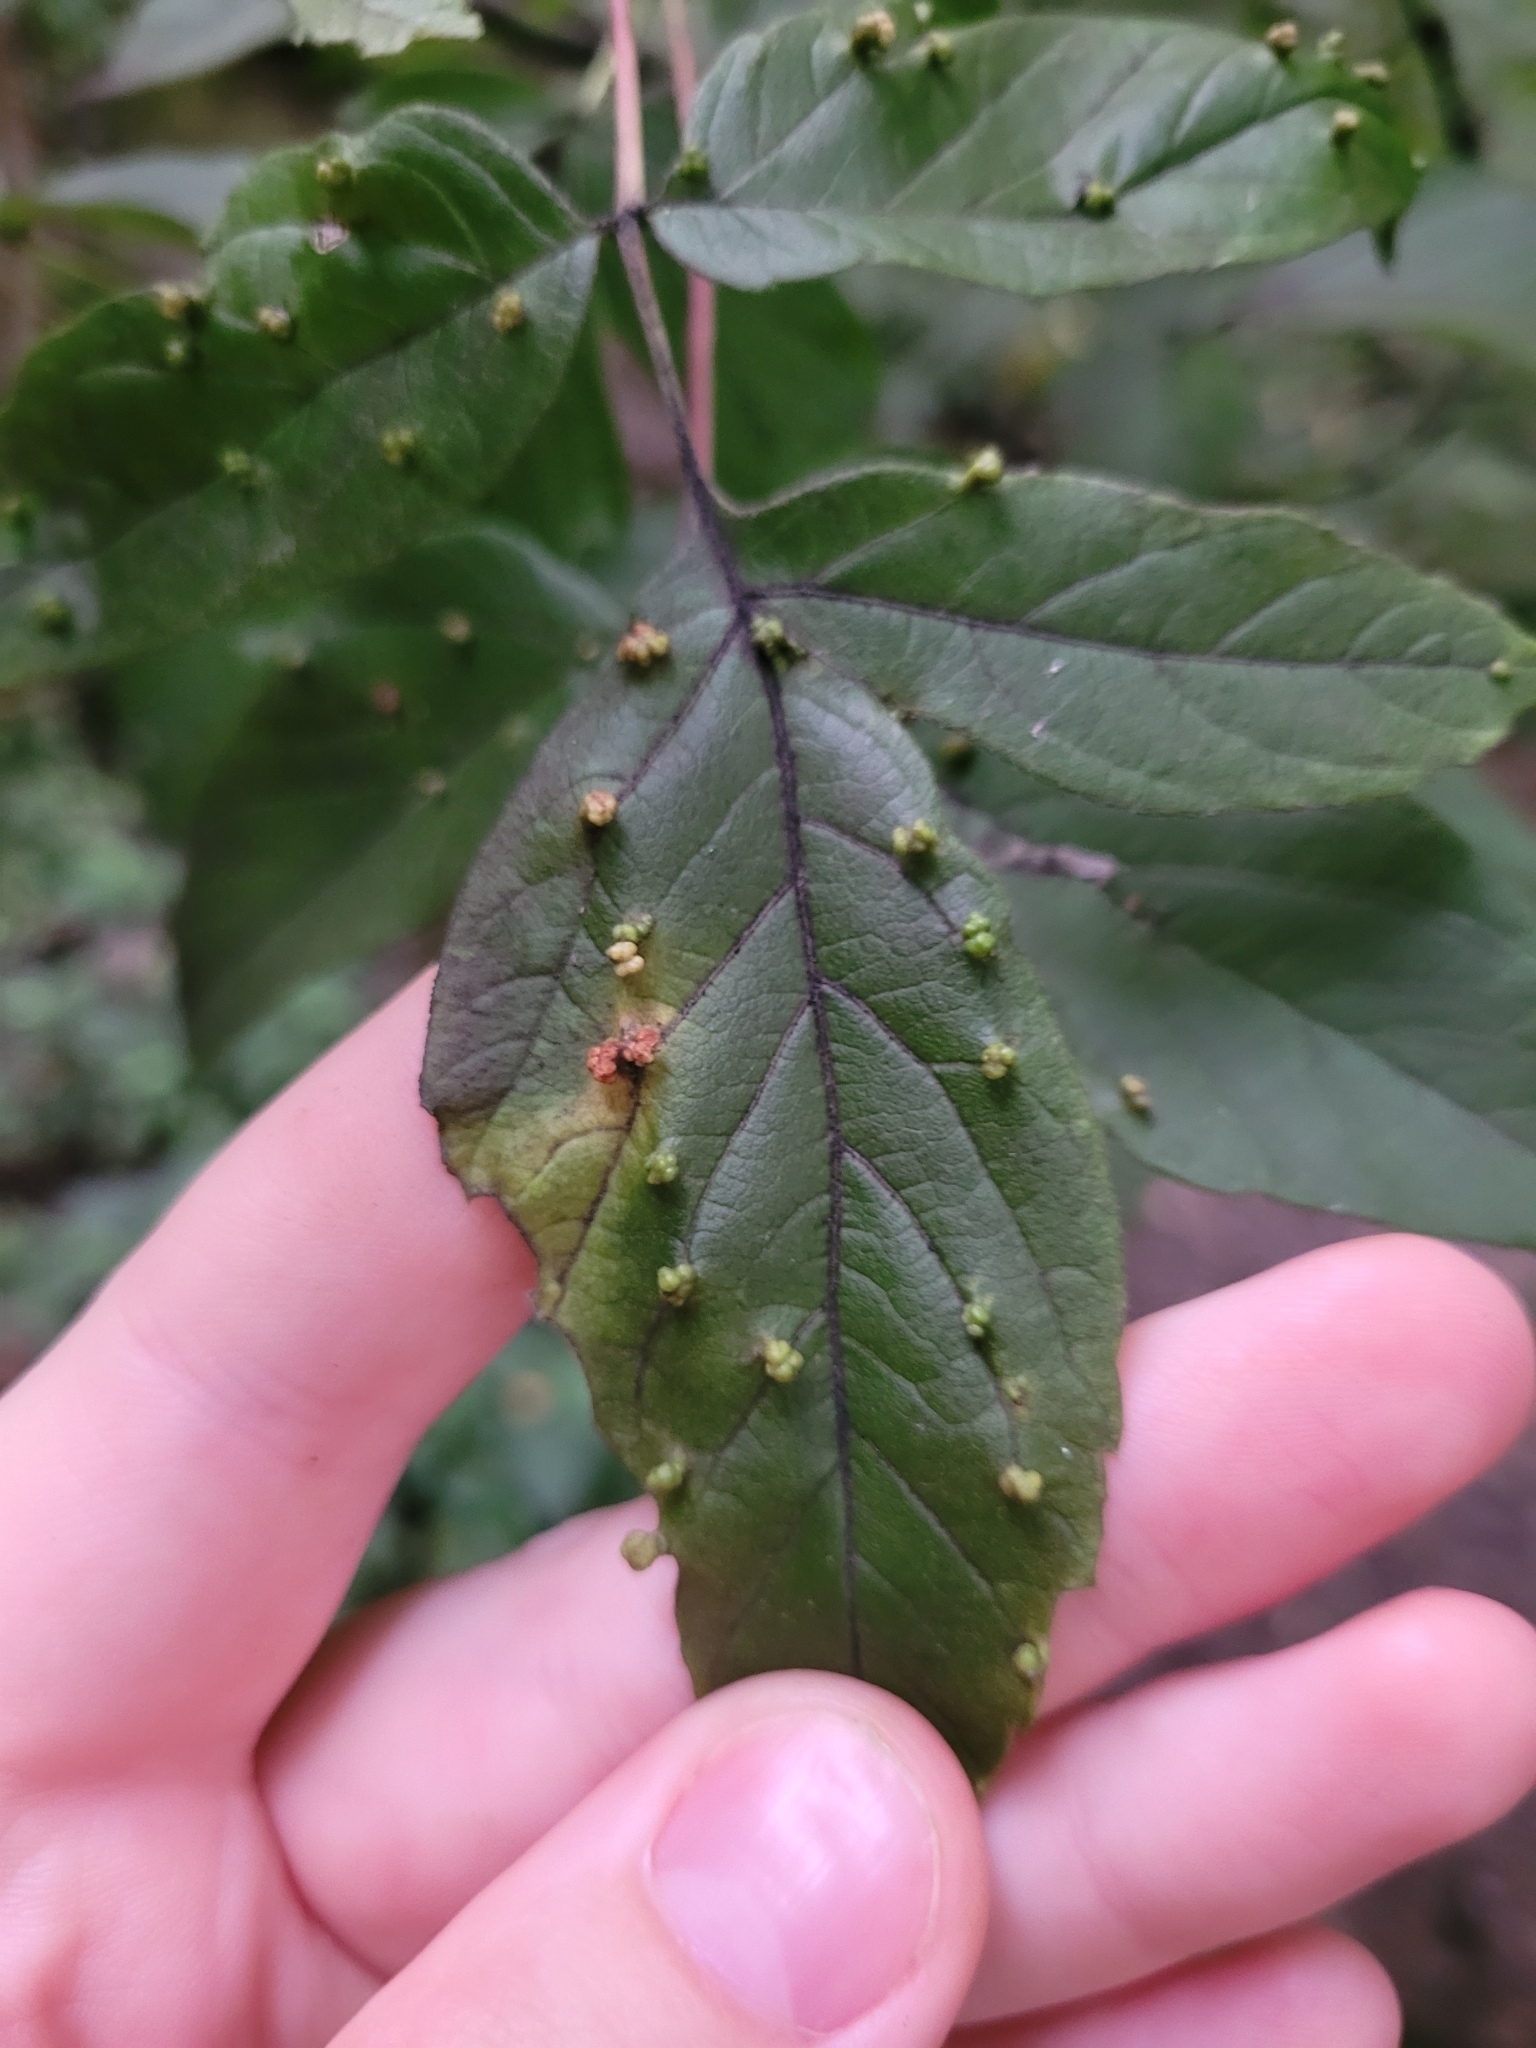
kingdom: Animalia
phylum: Arthropoda
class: Arachnida
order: Trombidiformes
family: Eriophyidae
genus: Aceria
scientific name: Aceria
